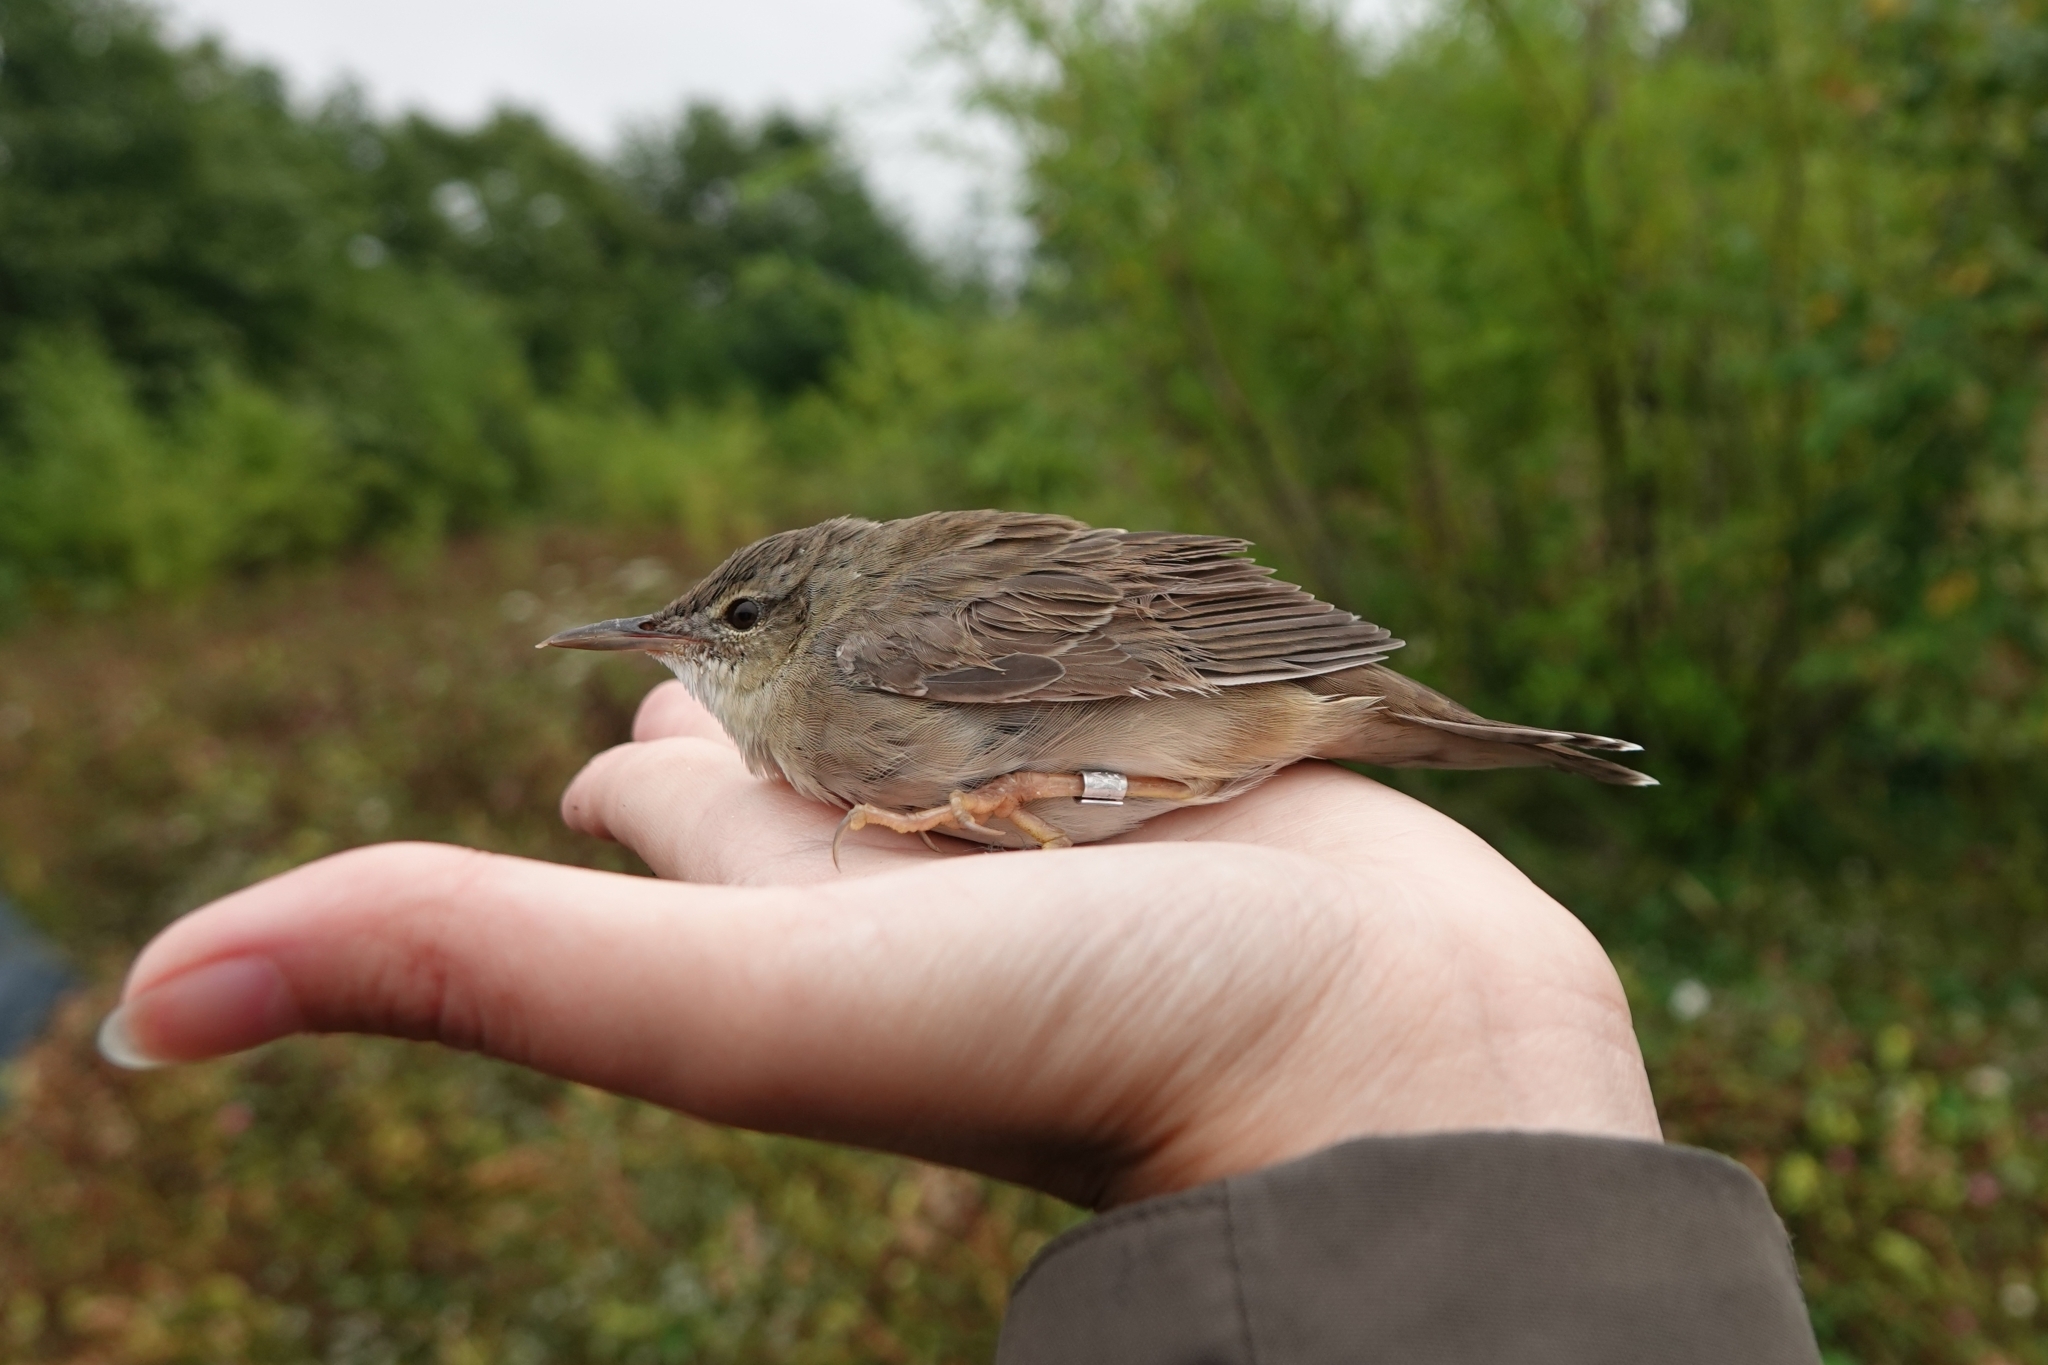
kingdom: Animalia
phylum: Chordata
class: Aves
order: Passeriformes
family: Locustellidae
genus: Locustella
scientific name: Locustella ochotensis
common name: Middendorff's grasshopper-warbler
